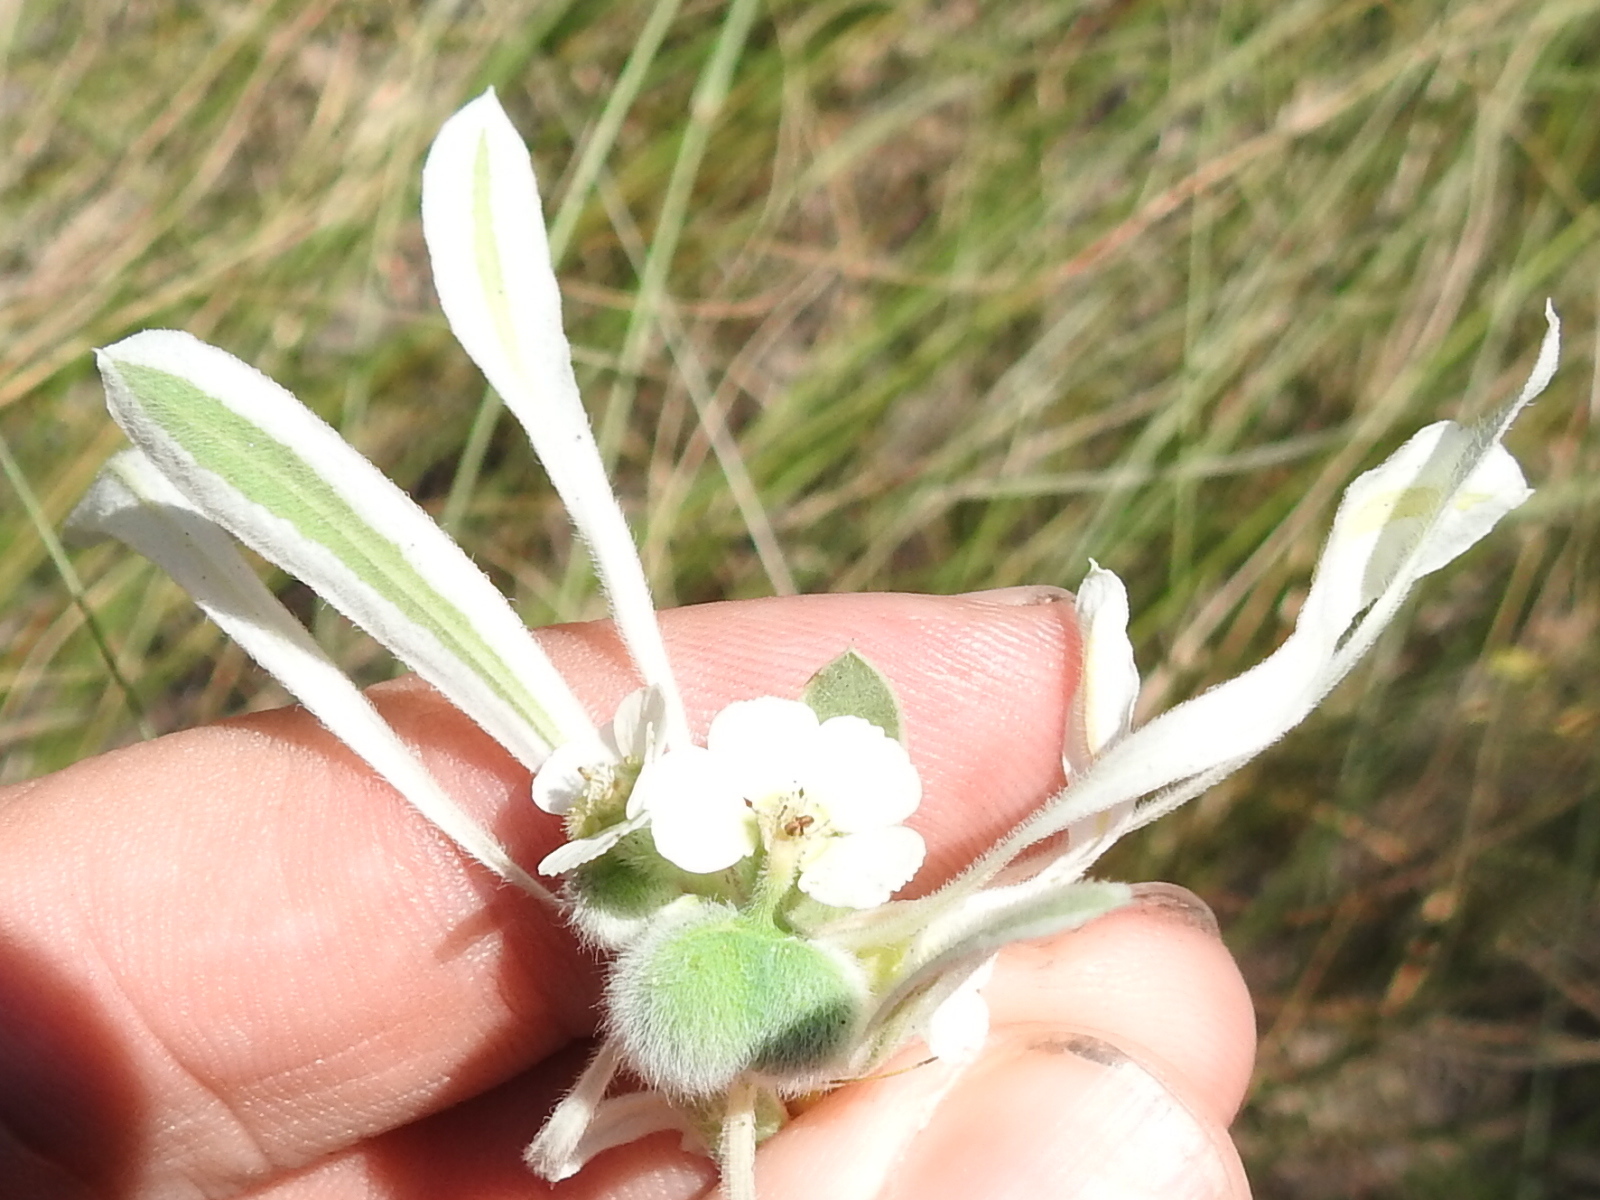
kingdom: Plantae
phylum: Tracheophyta
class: Magnoliopsida
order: Malpighiales
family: Euphorbiaceae
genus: Euphorbia
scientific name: Euphorbia bicolor
